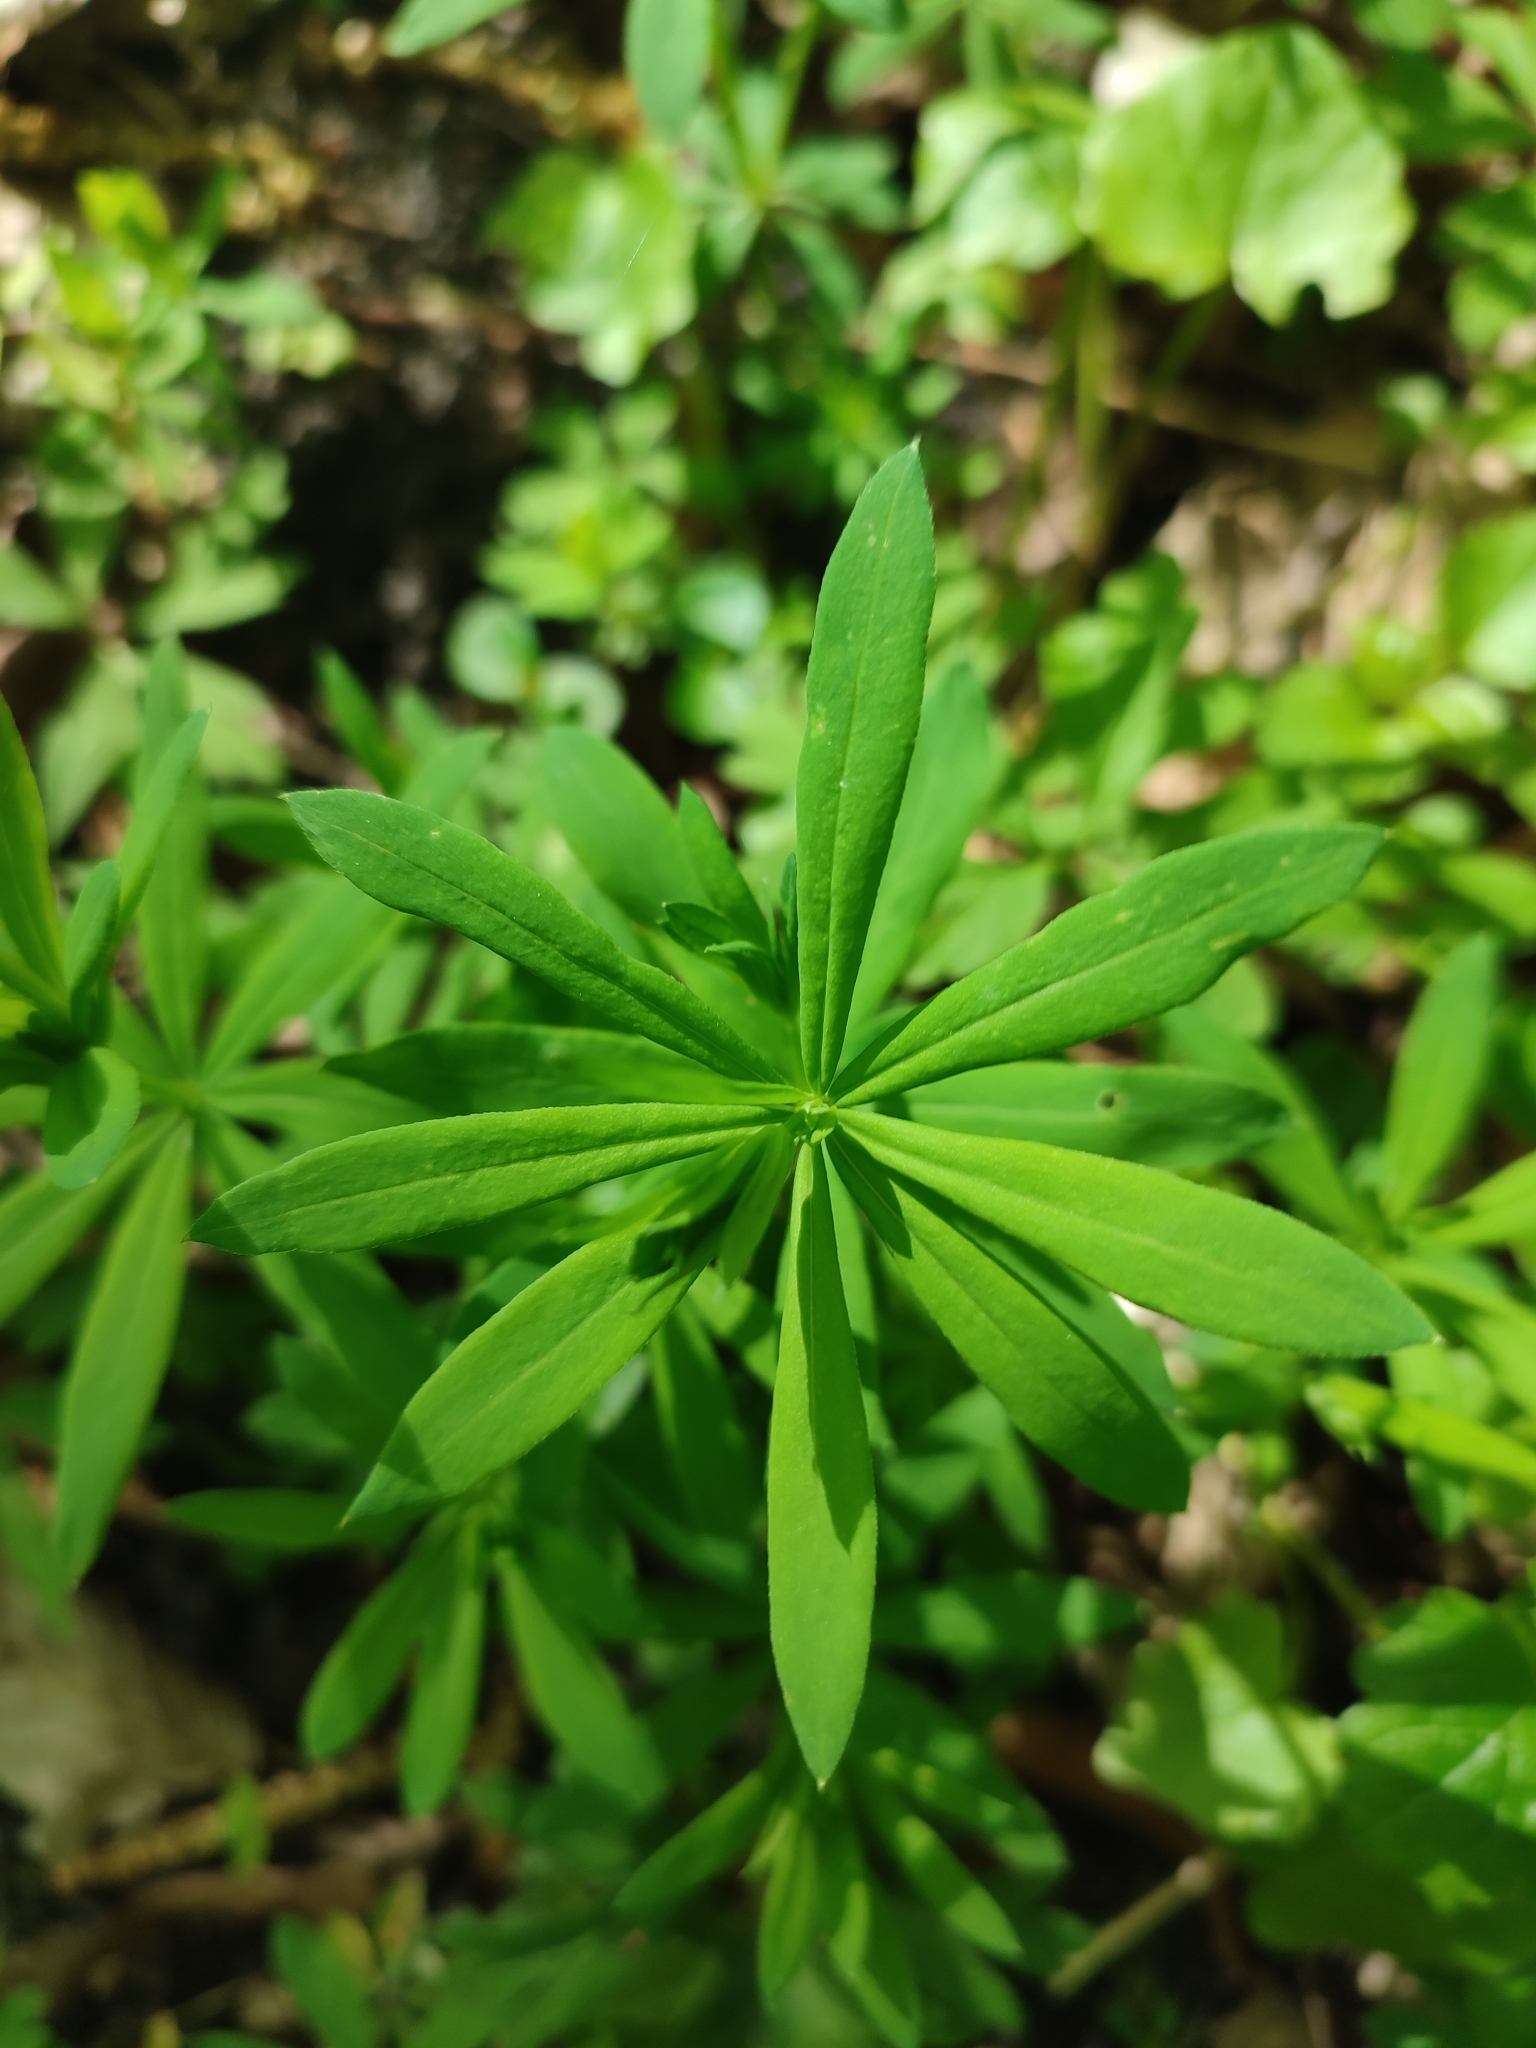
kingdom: Plantae
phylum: Tracheophyta
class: Magnoliopsida
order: Gentianales
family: Rubiaceae
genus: Galium
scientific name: Galium intermedium
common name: Bedstraw
